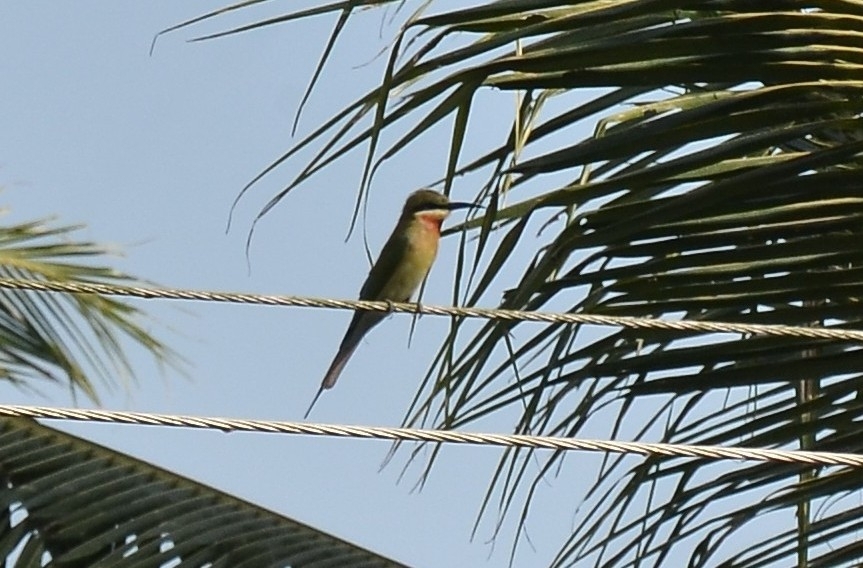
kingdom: Animalia
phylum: Chordata
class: Aves
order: Coraciiformes
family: Meropidae
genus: Merops
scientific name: Merops philippinus
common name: Blue-tailed bee-eater
